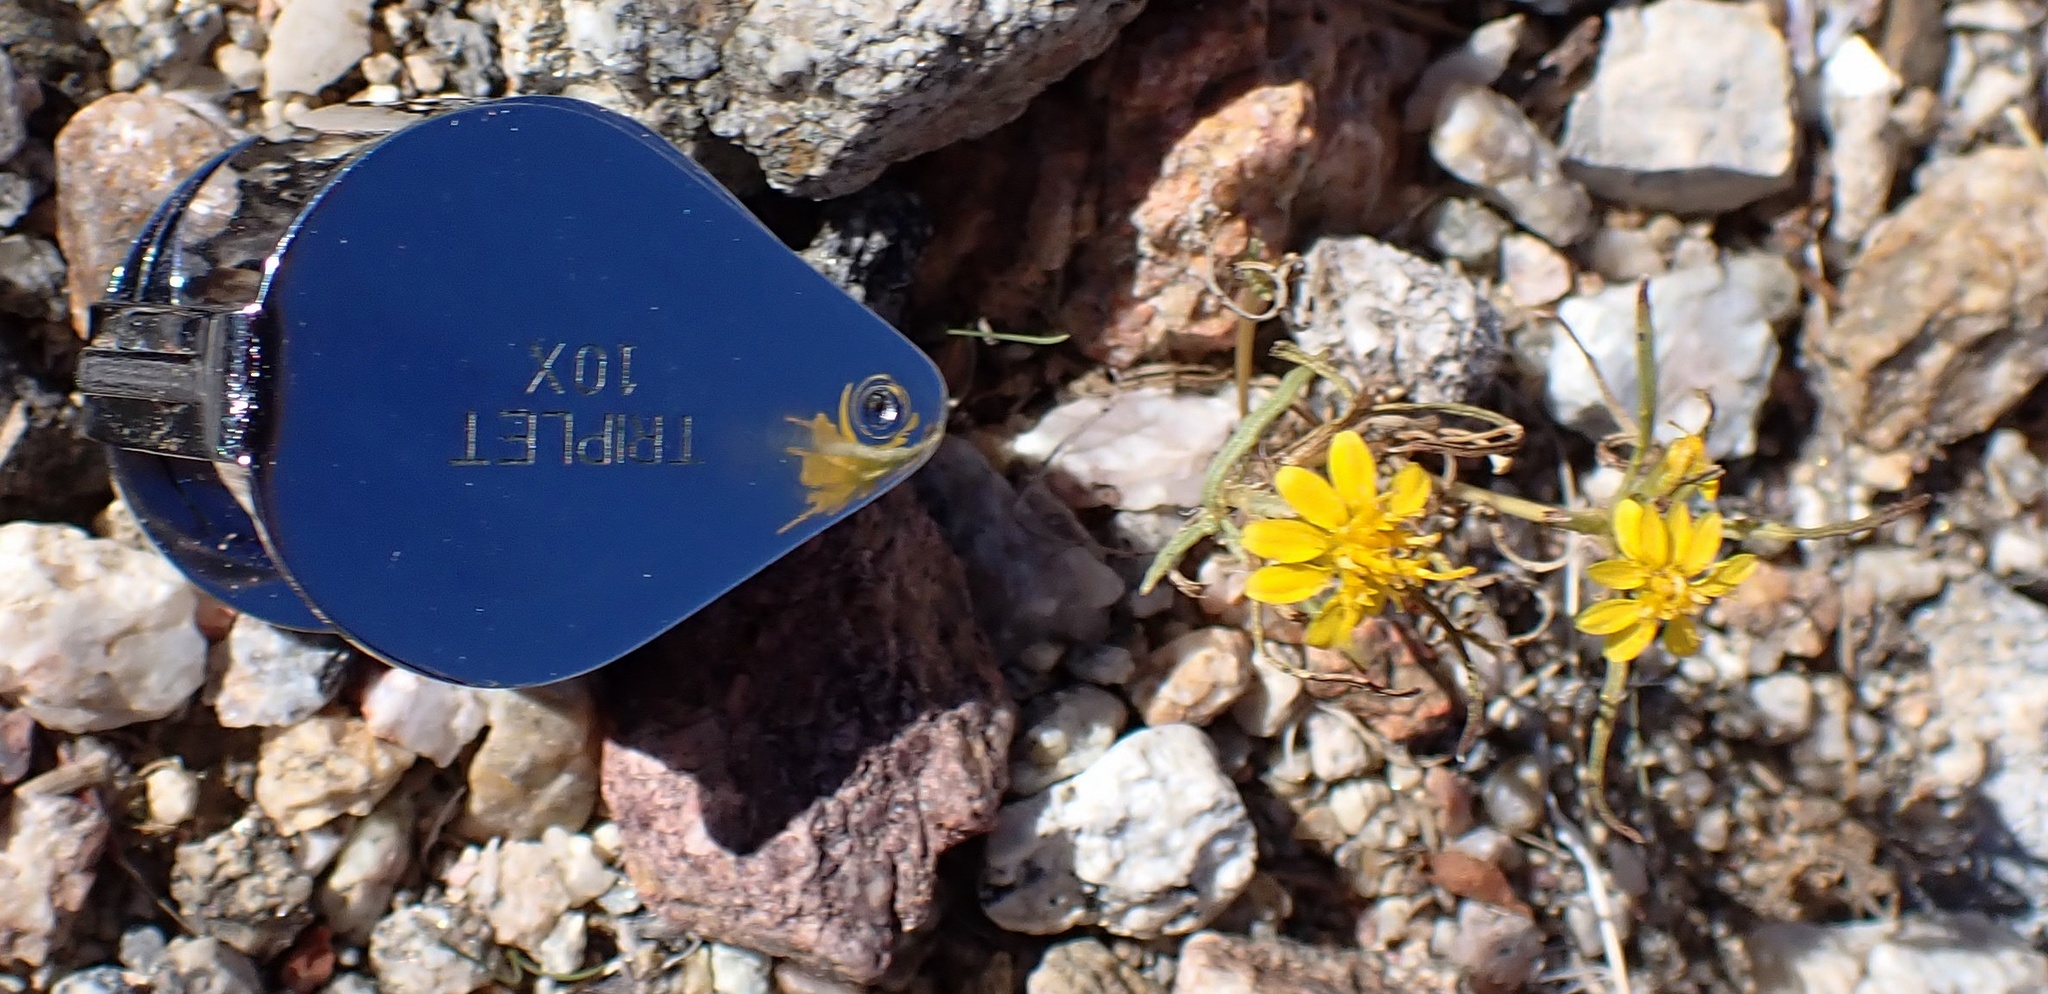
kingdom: Plantae
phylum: Tracheophyta
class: Magnoliopsida
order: Asterales
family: Asteraceae
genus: Pectis
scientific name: Pectis papposa
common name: Many-bristle chinchweed
